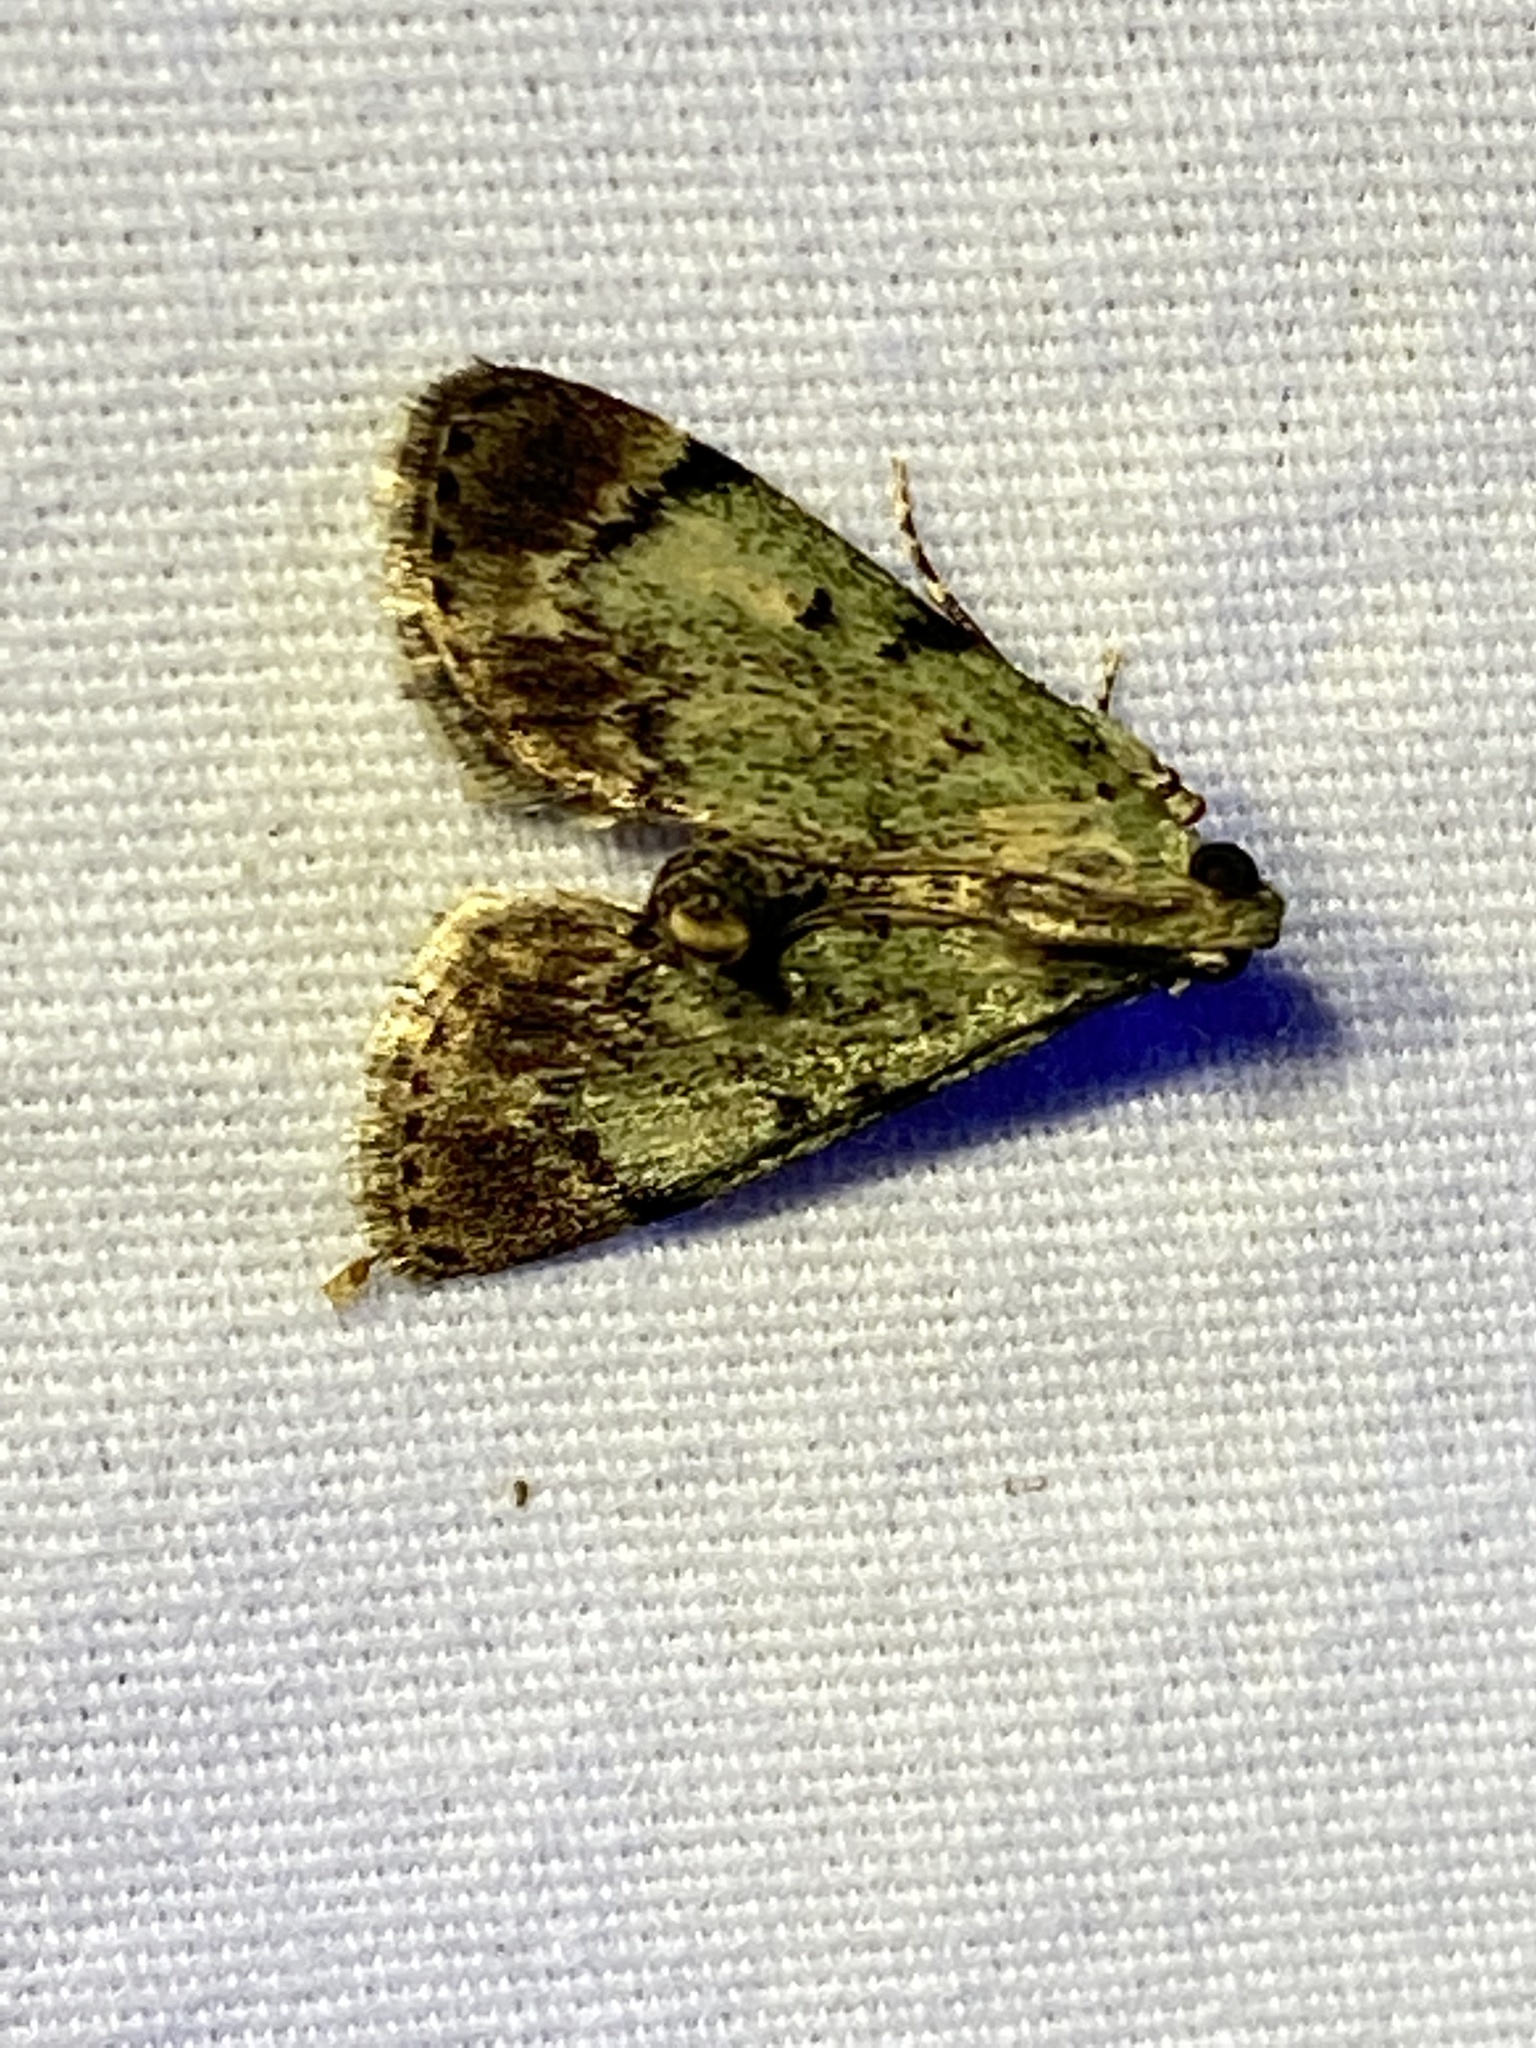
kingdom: Animalia
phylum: Arthropoda
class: Insecta
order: Lepidoptera
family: Pyralidae
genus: Epipaschia
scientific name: Epipaschia superatalis
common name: Dimorphic macalla moth
